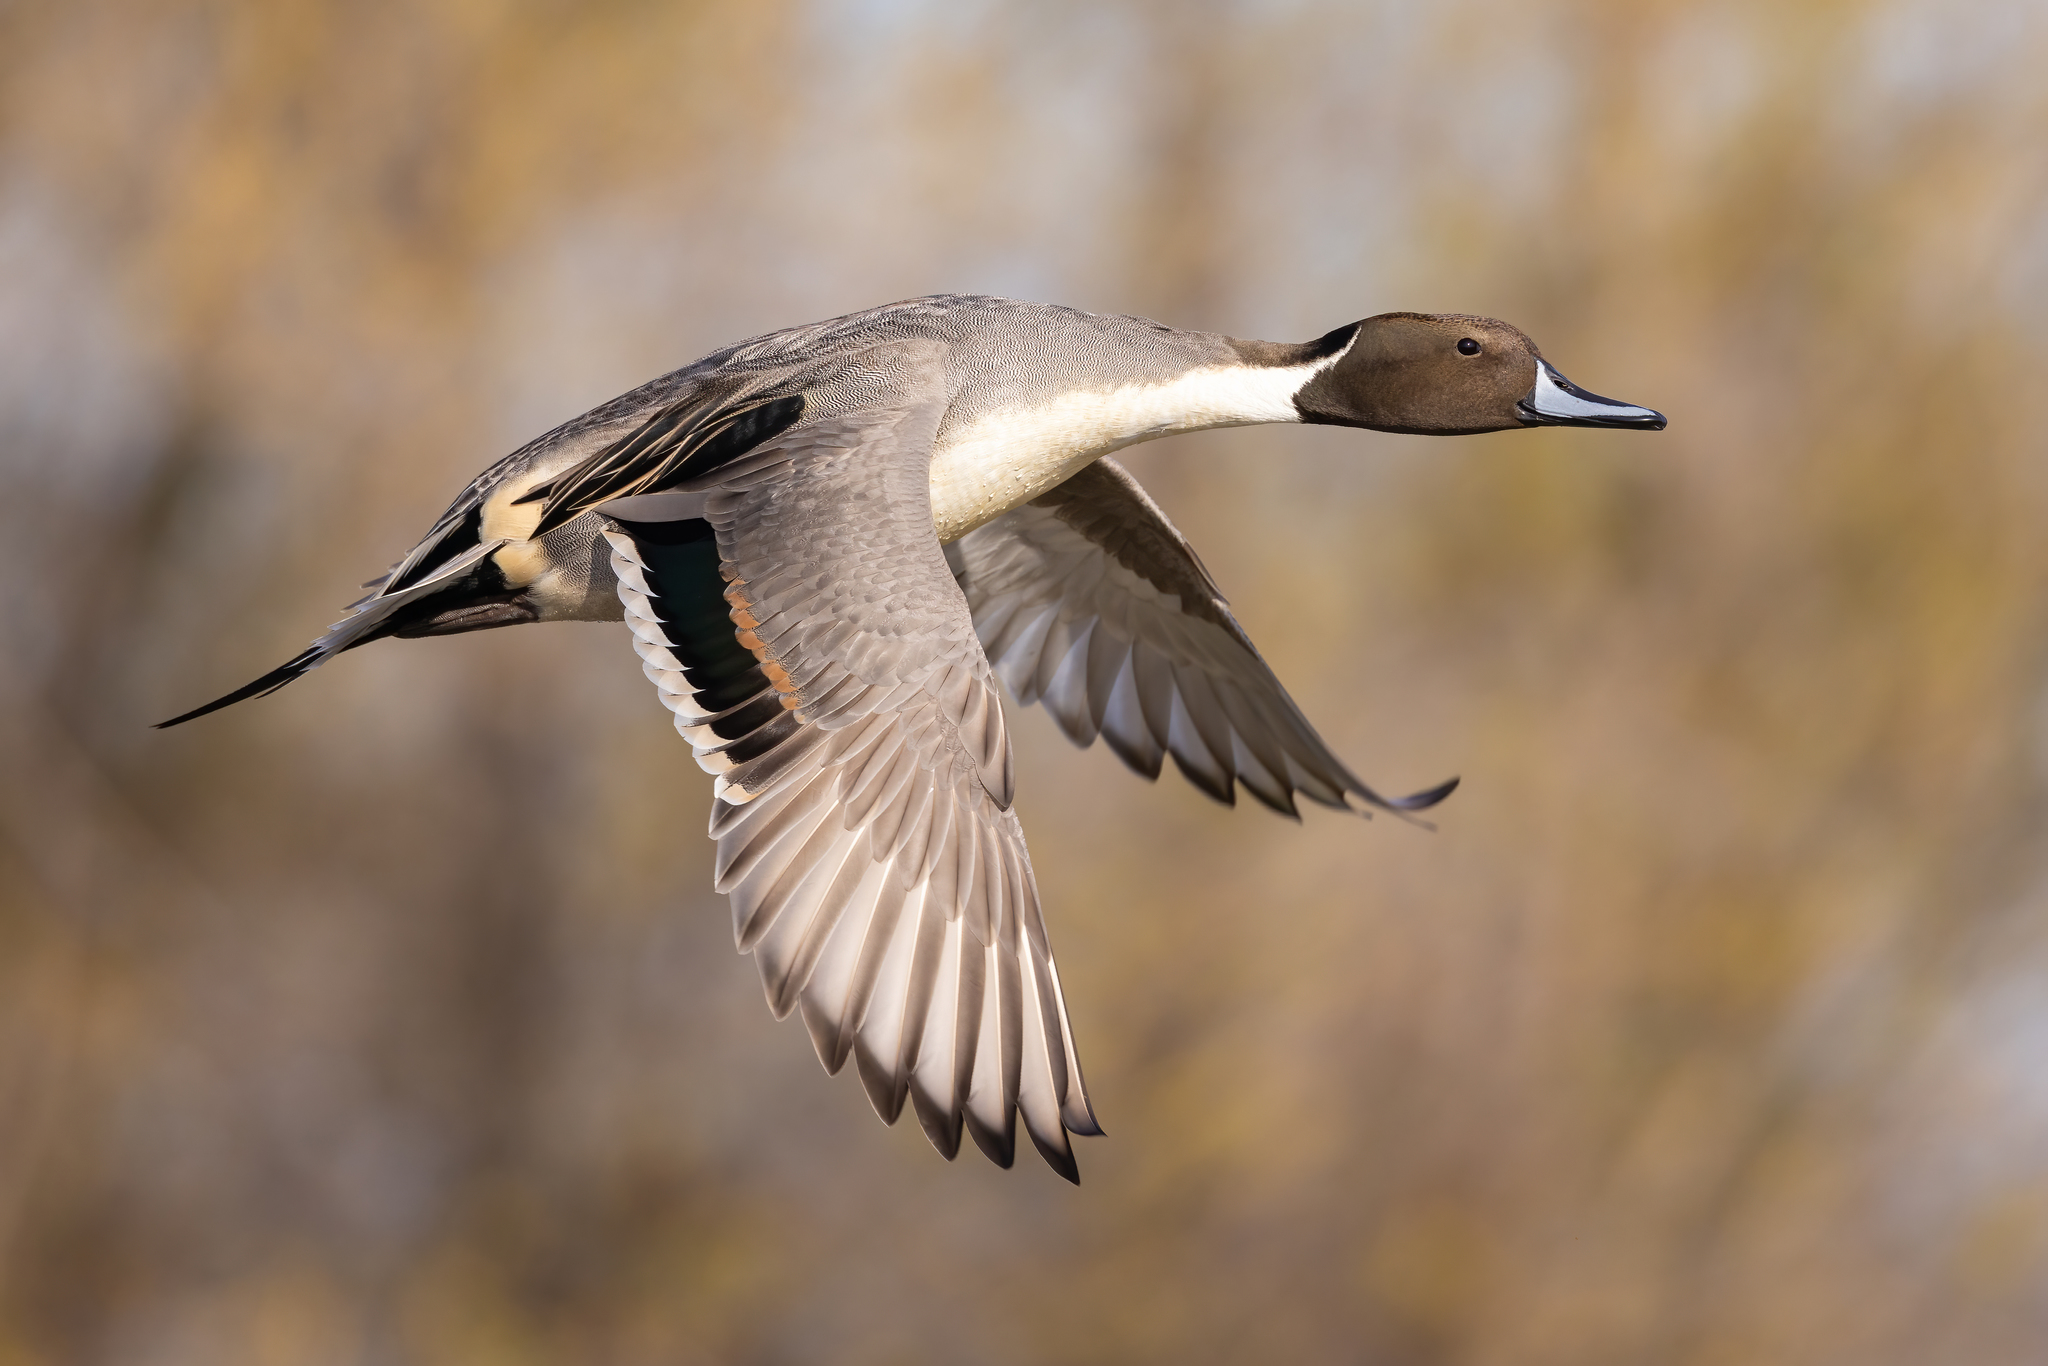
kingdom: Animalia
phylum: Chordata
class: Aves
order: Anseriformes
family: Anatidae
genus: Anas
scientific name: Anas acuta
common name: Northern pintail
